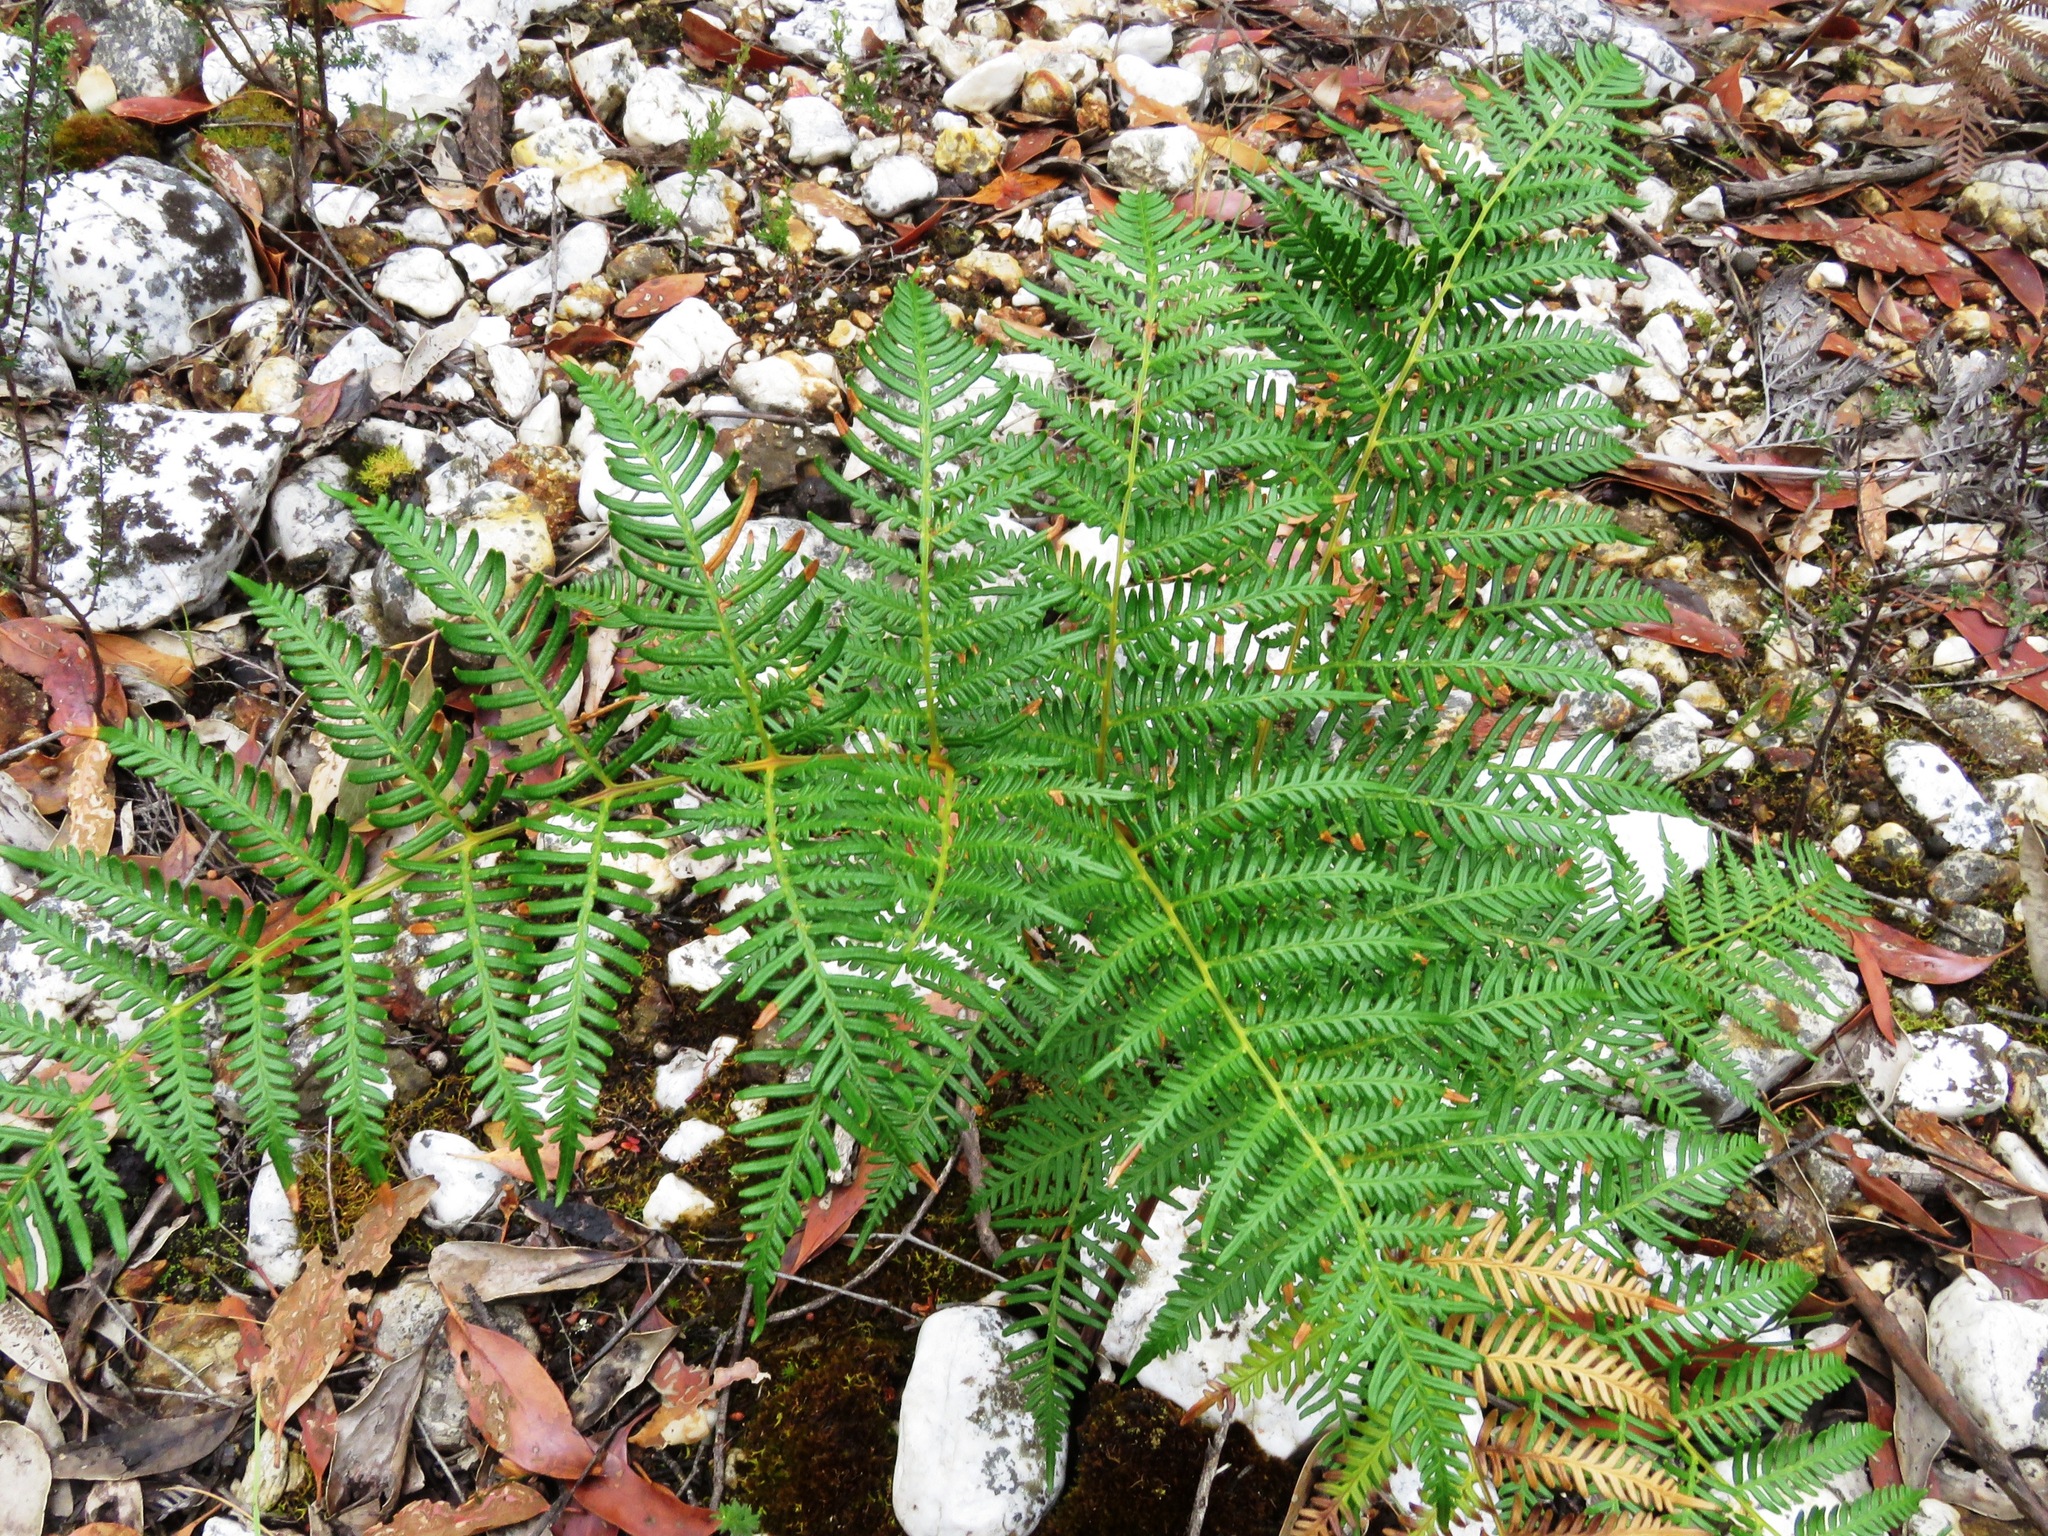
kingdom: Plantae
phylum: Tracheophyta
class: Polypodiopsida
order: Polypodiales
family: Dennstaedtiaceae
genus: Pteridium
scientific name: Pteridium esculentum
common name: Bracken fern
